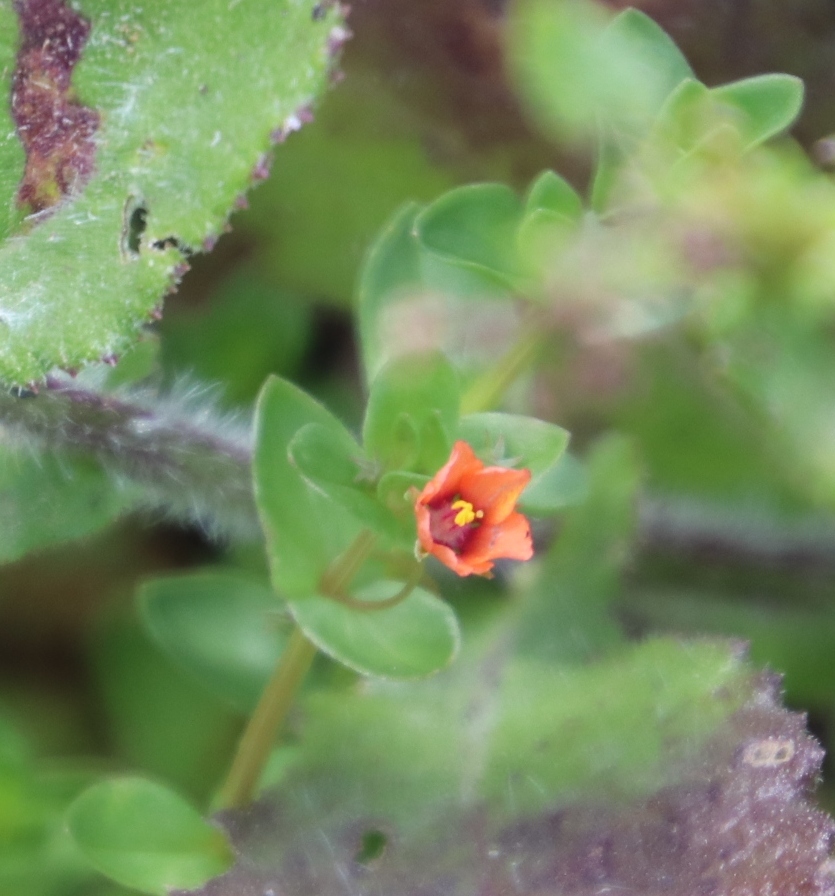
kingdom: Plantae
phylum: Tracheophyta
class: Magnoliopsida
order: Ericales
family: Primulaceae
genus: Lysimachia
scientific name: Lysimachia arvensis
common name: Scarlet pimpernel
